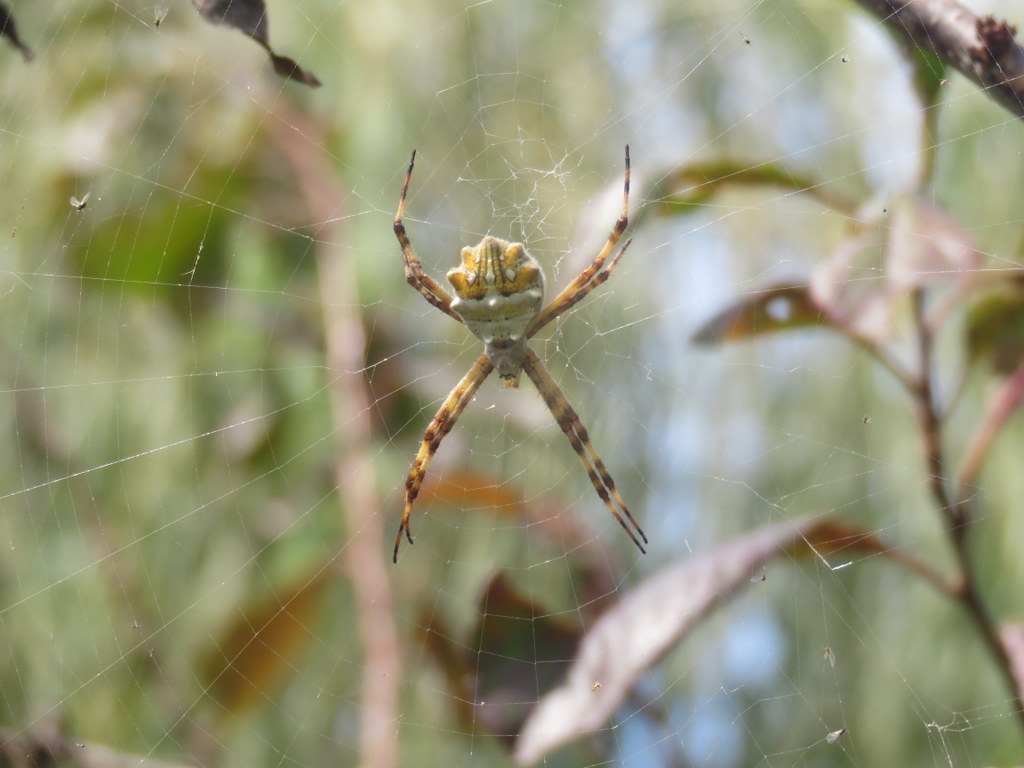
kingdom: Animalia
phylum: Arthropoda
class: Arachnida
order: Araneae
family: Araneidae
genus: Argiope
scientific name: Argiope argentata
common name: Orb weavers
